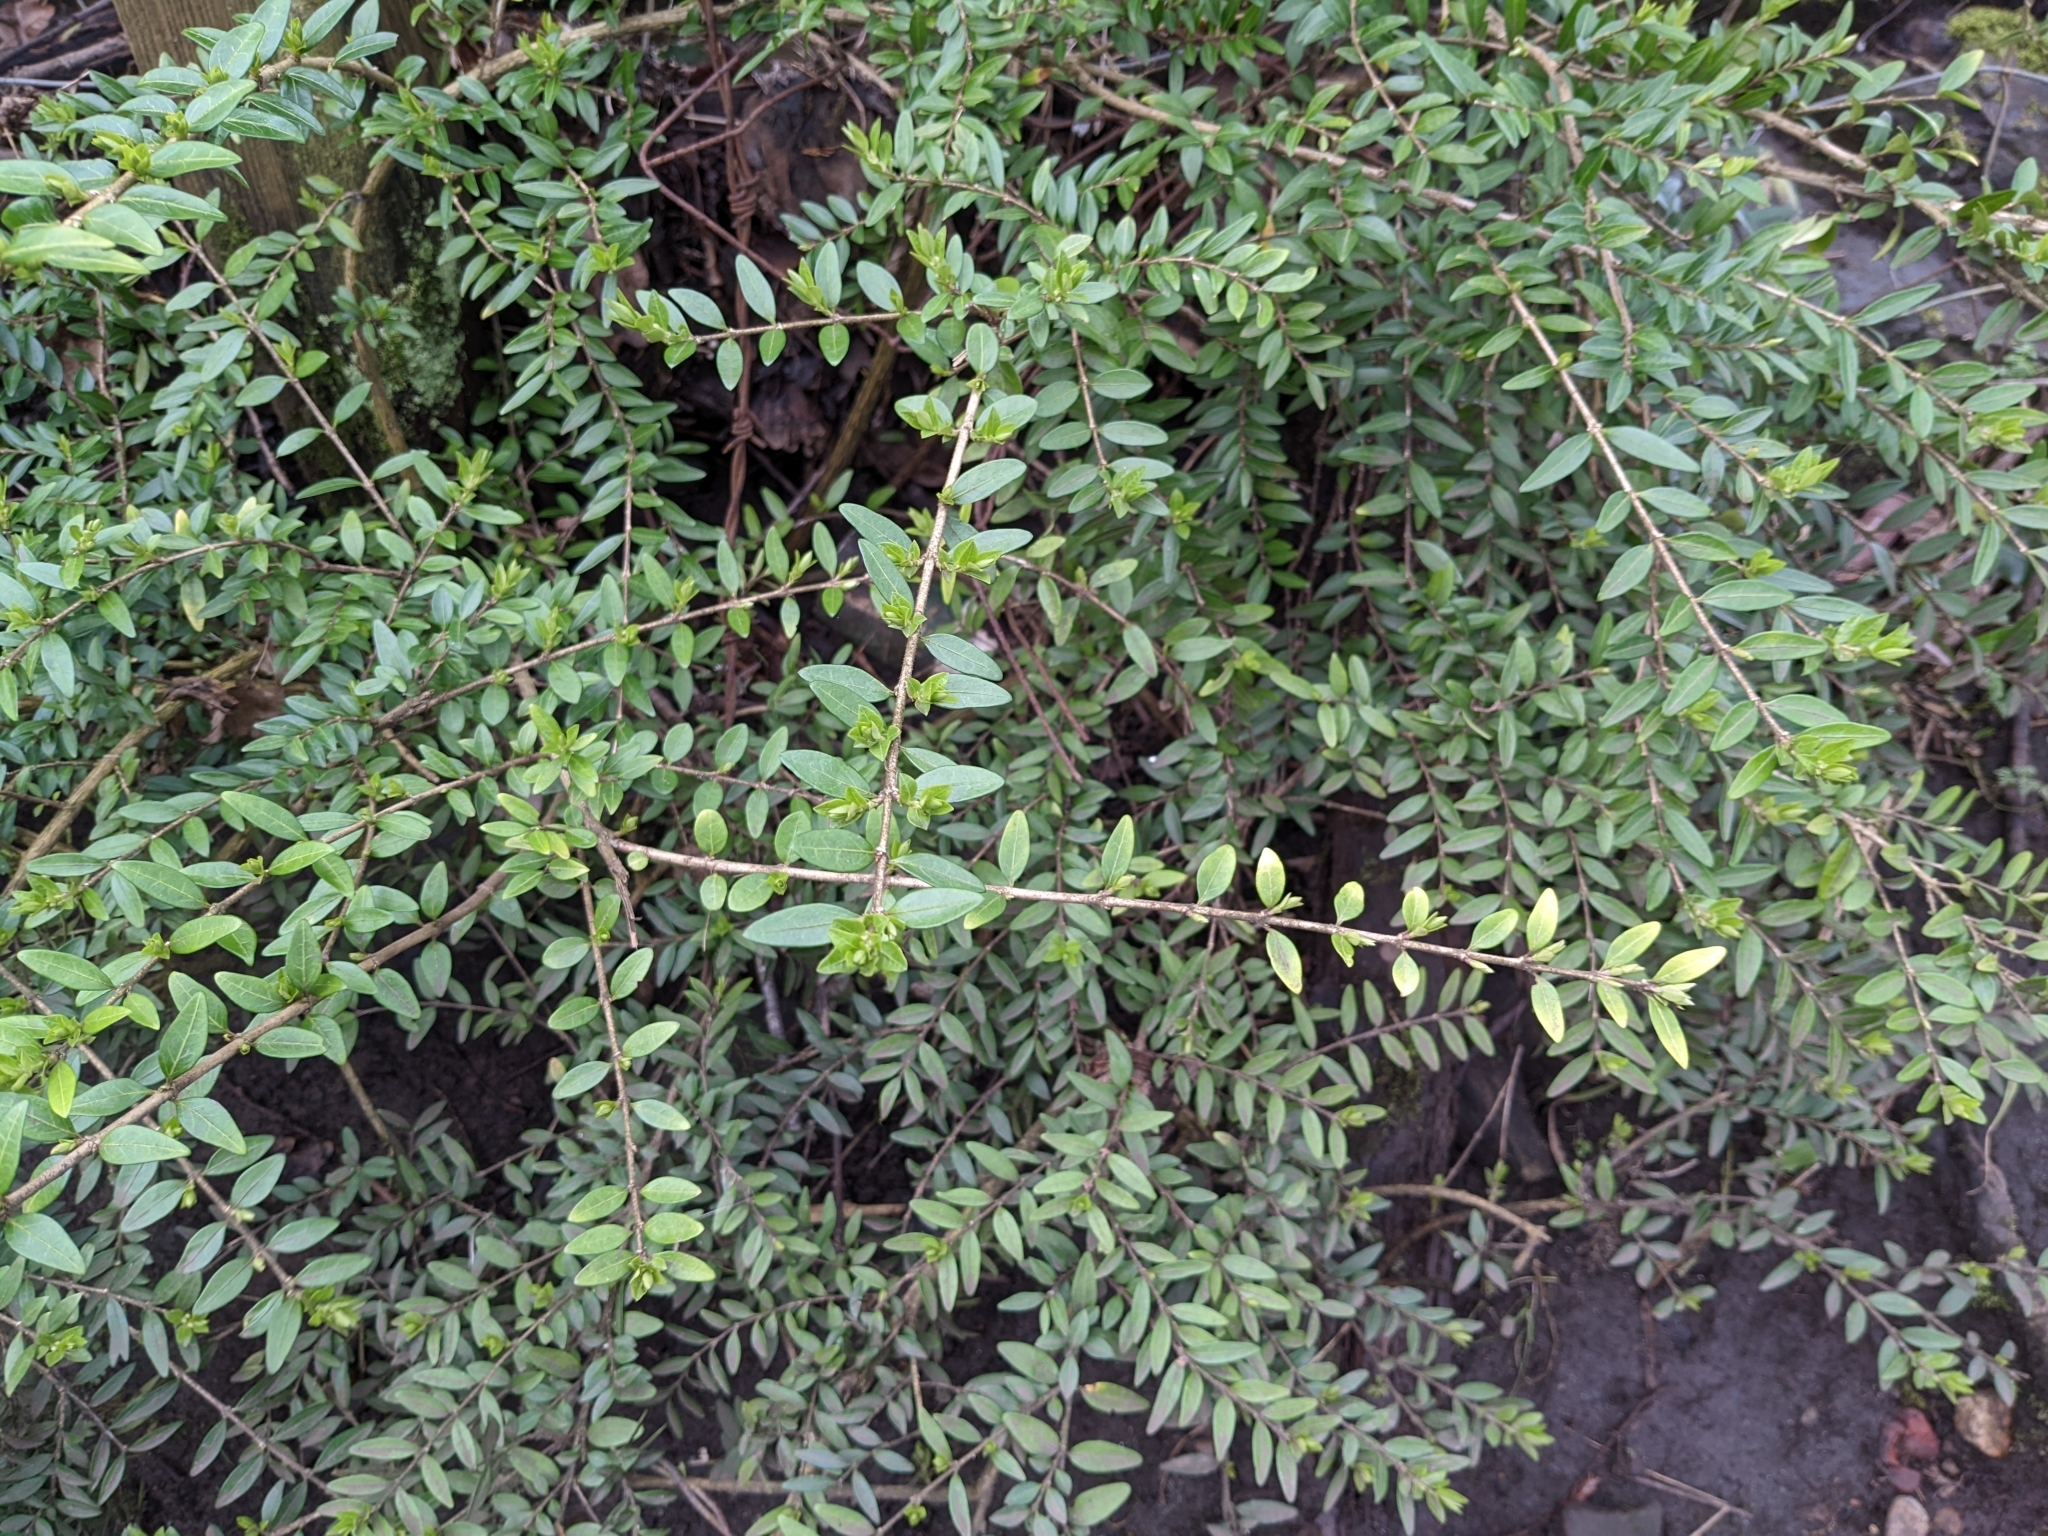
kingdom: Plantae
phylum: Tracheophyta
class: Magnoliopsida
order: Dipsacales
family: Caprifoliaceae
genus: Lonicera
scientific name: Lonicera ligustrina
